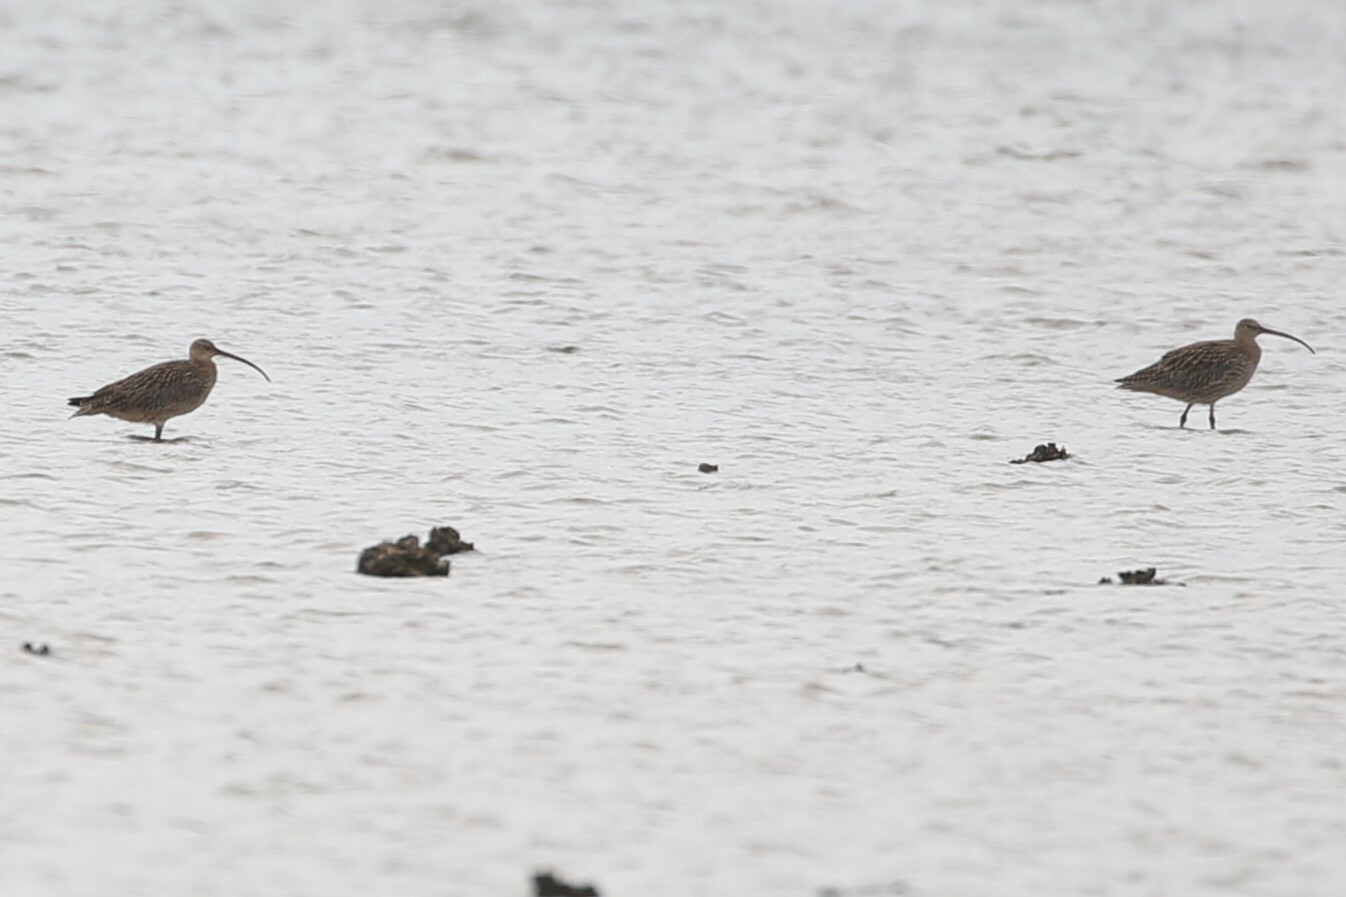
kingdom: Animalia
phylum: Chordata
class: Aves
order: Charadriiformes
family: Scolopacidae
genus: Numenius
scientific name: Numenius madagascariensis
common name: Far eastern curlew
